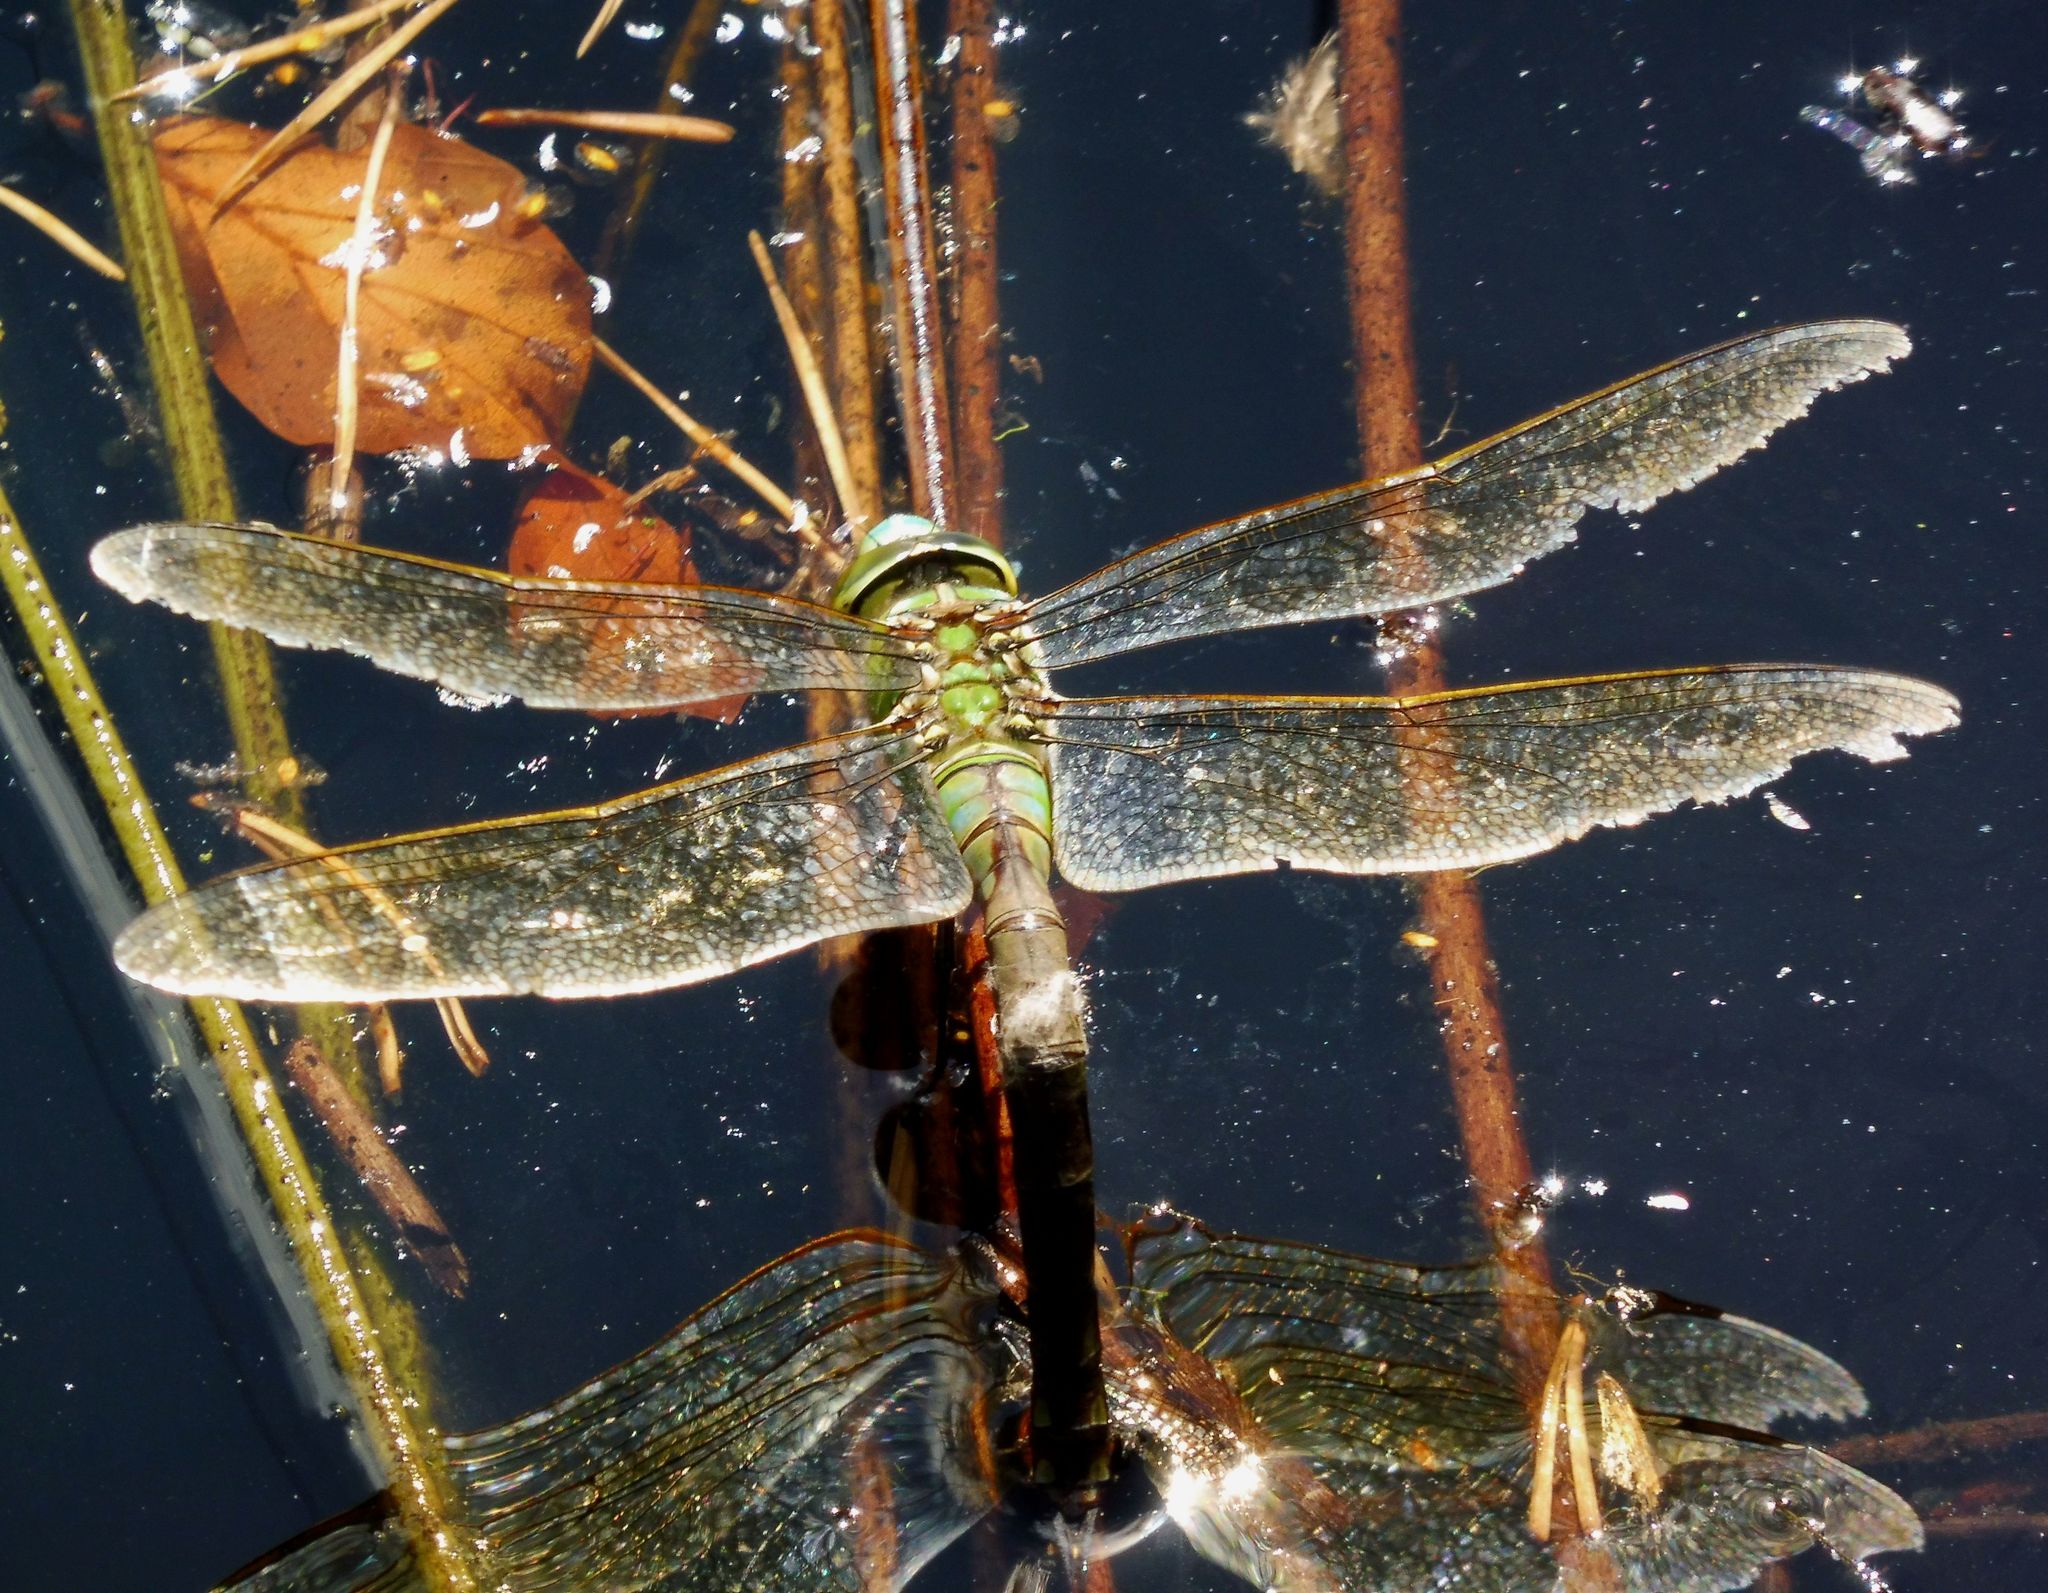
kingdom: Animalia
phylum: Arthropoda
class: Insecta
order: Odonata
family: Aeshnidae
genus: Anax
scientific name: Anax imperator
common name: Emperor dragonfly
